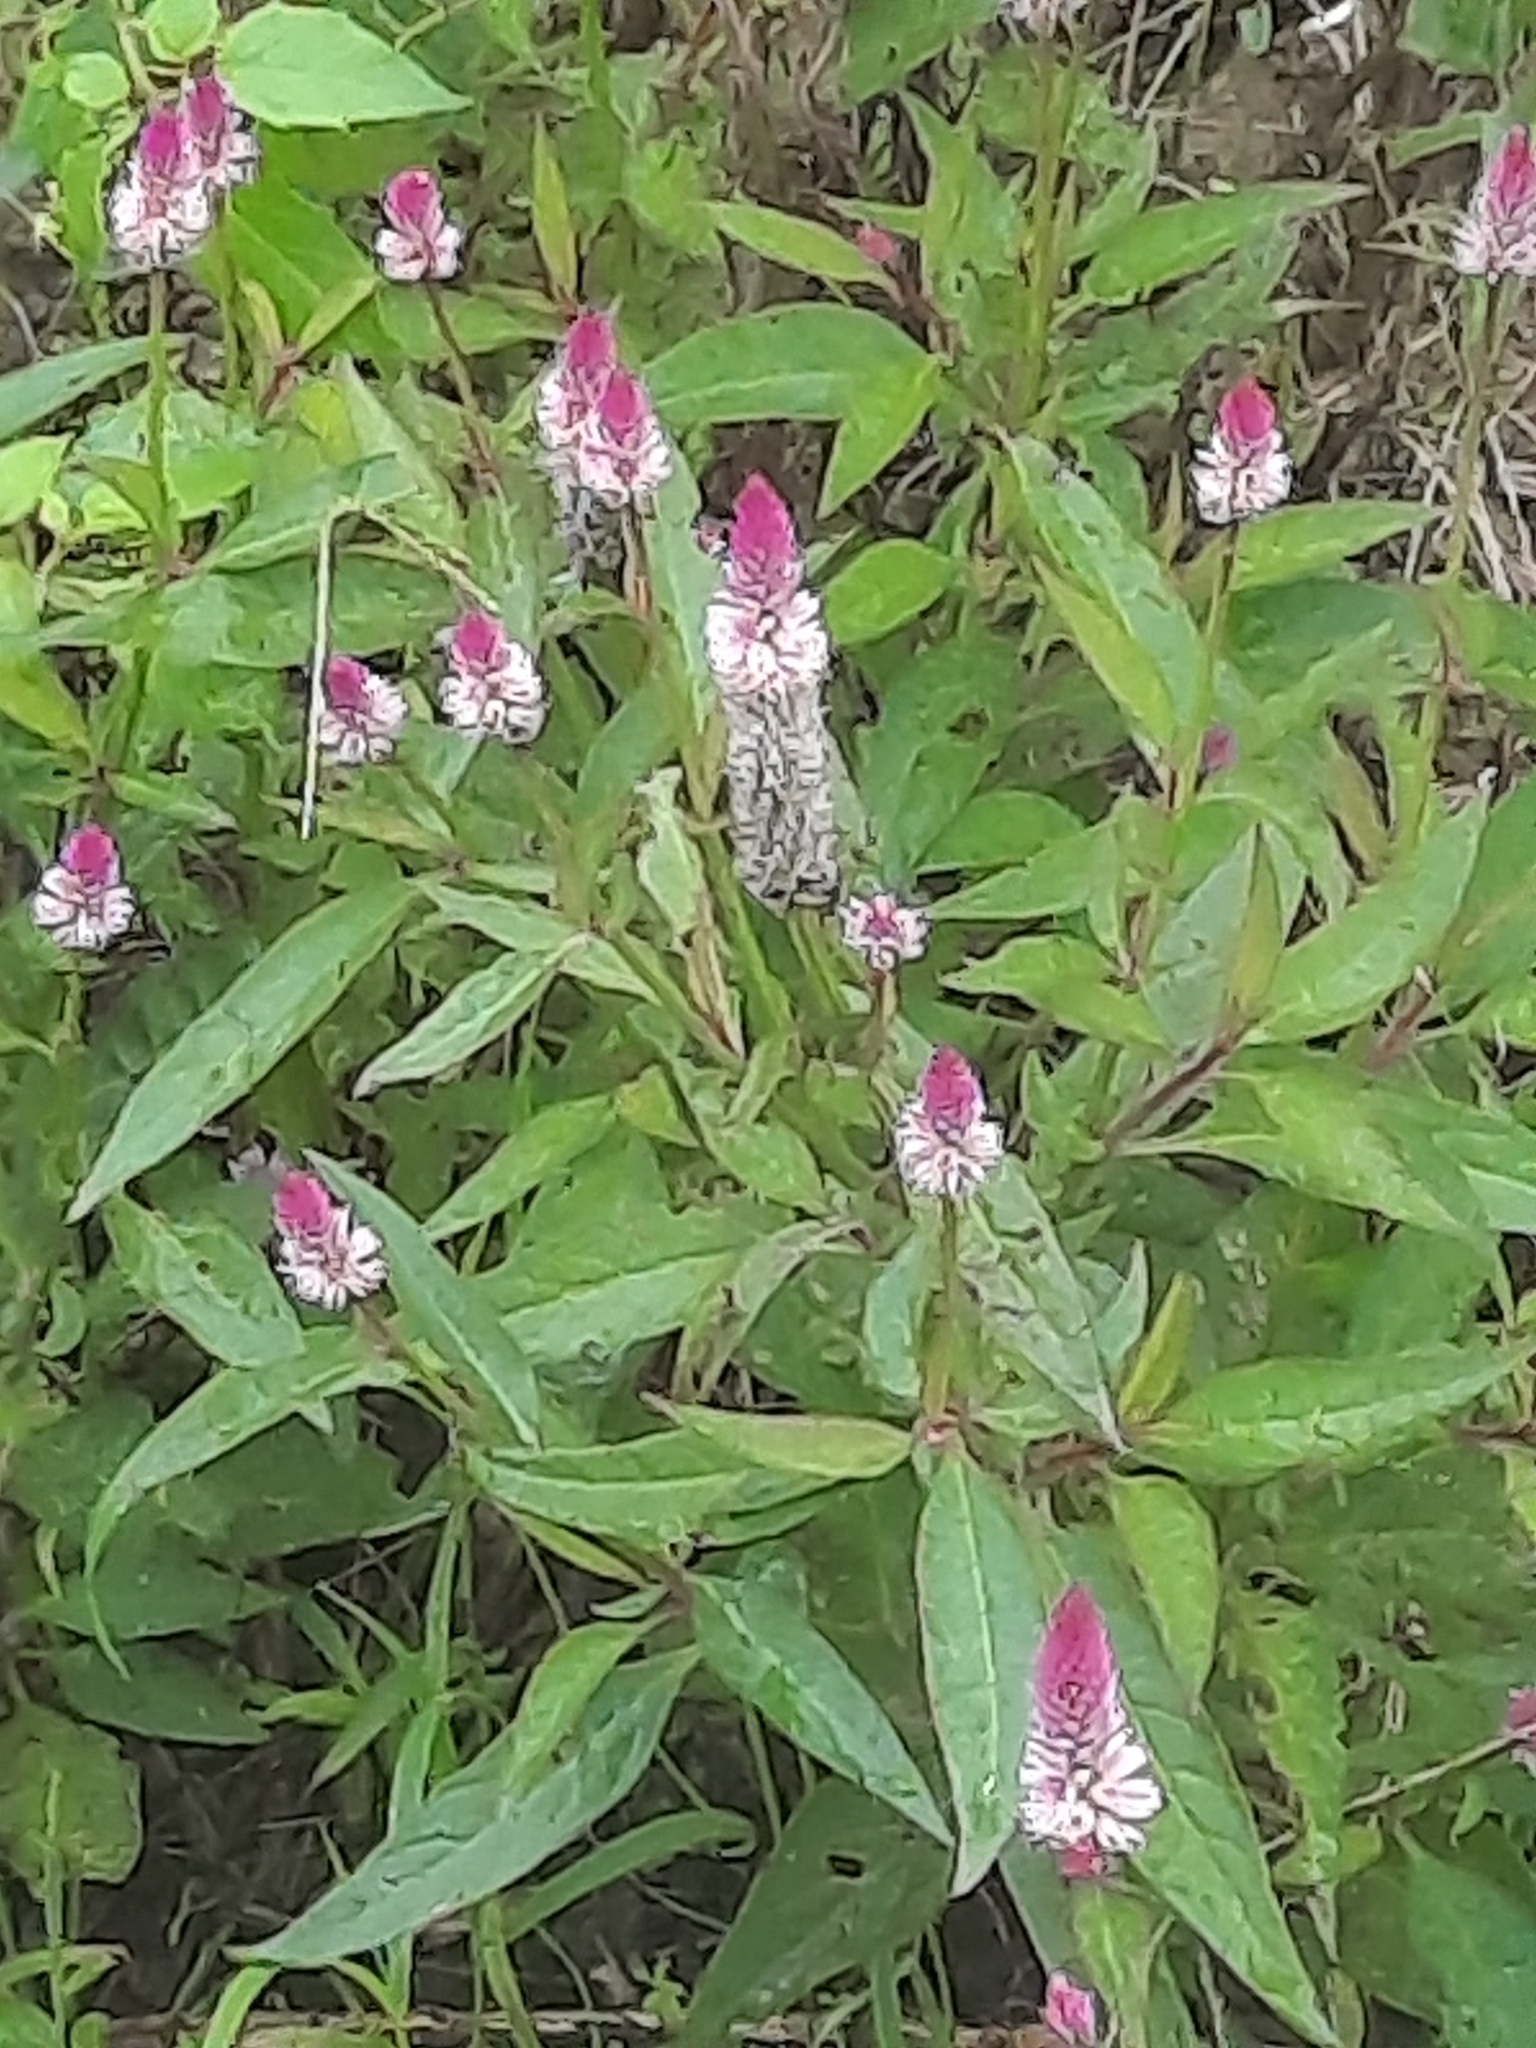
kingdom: Plantae
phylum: Tracheophyta
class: Magnoliopsida
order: Caryophyllales
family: Amaranthaceae
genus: Celosia
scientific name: Celosia argentea
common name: Feather cockscomb
